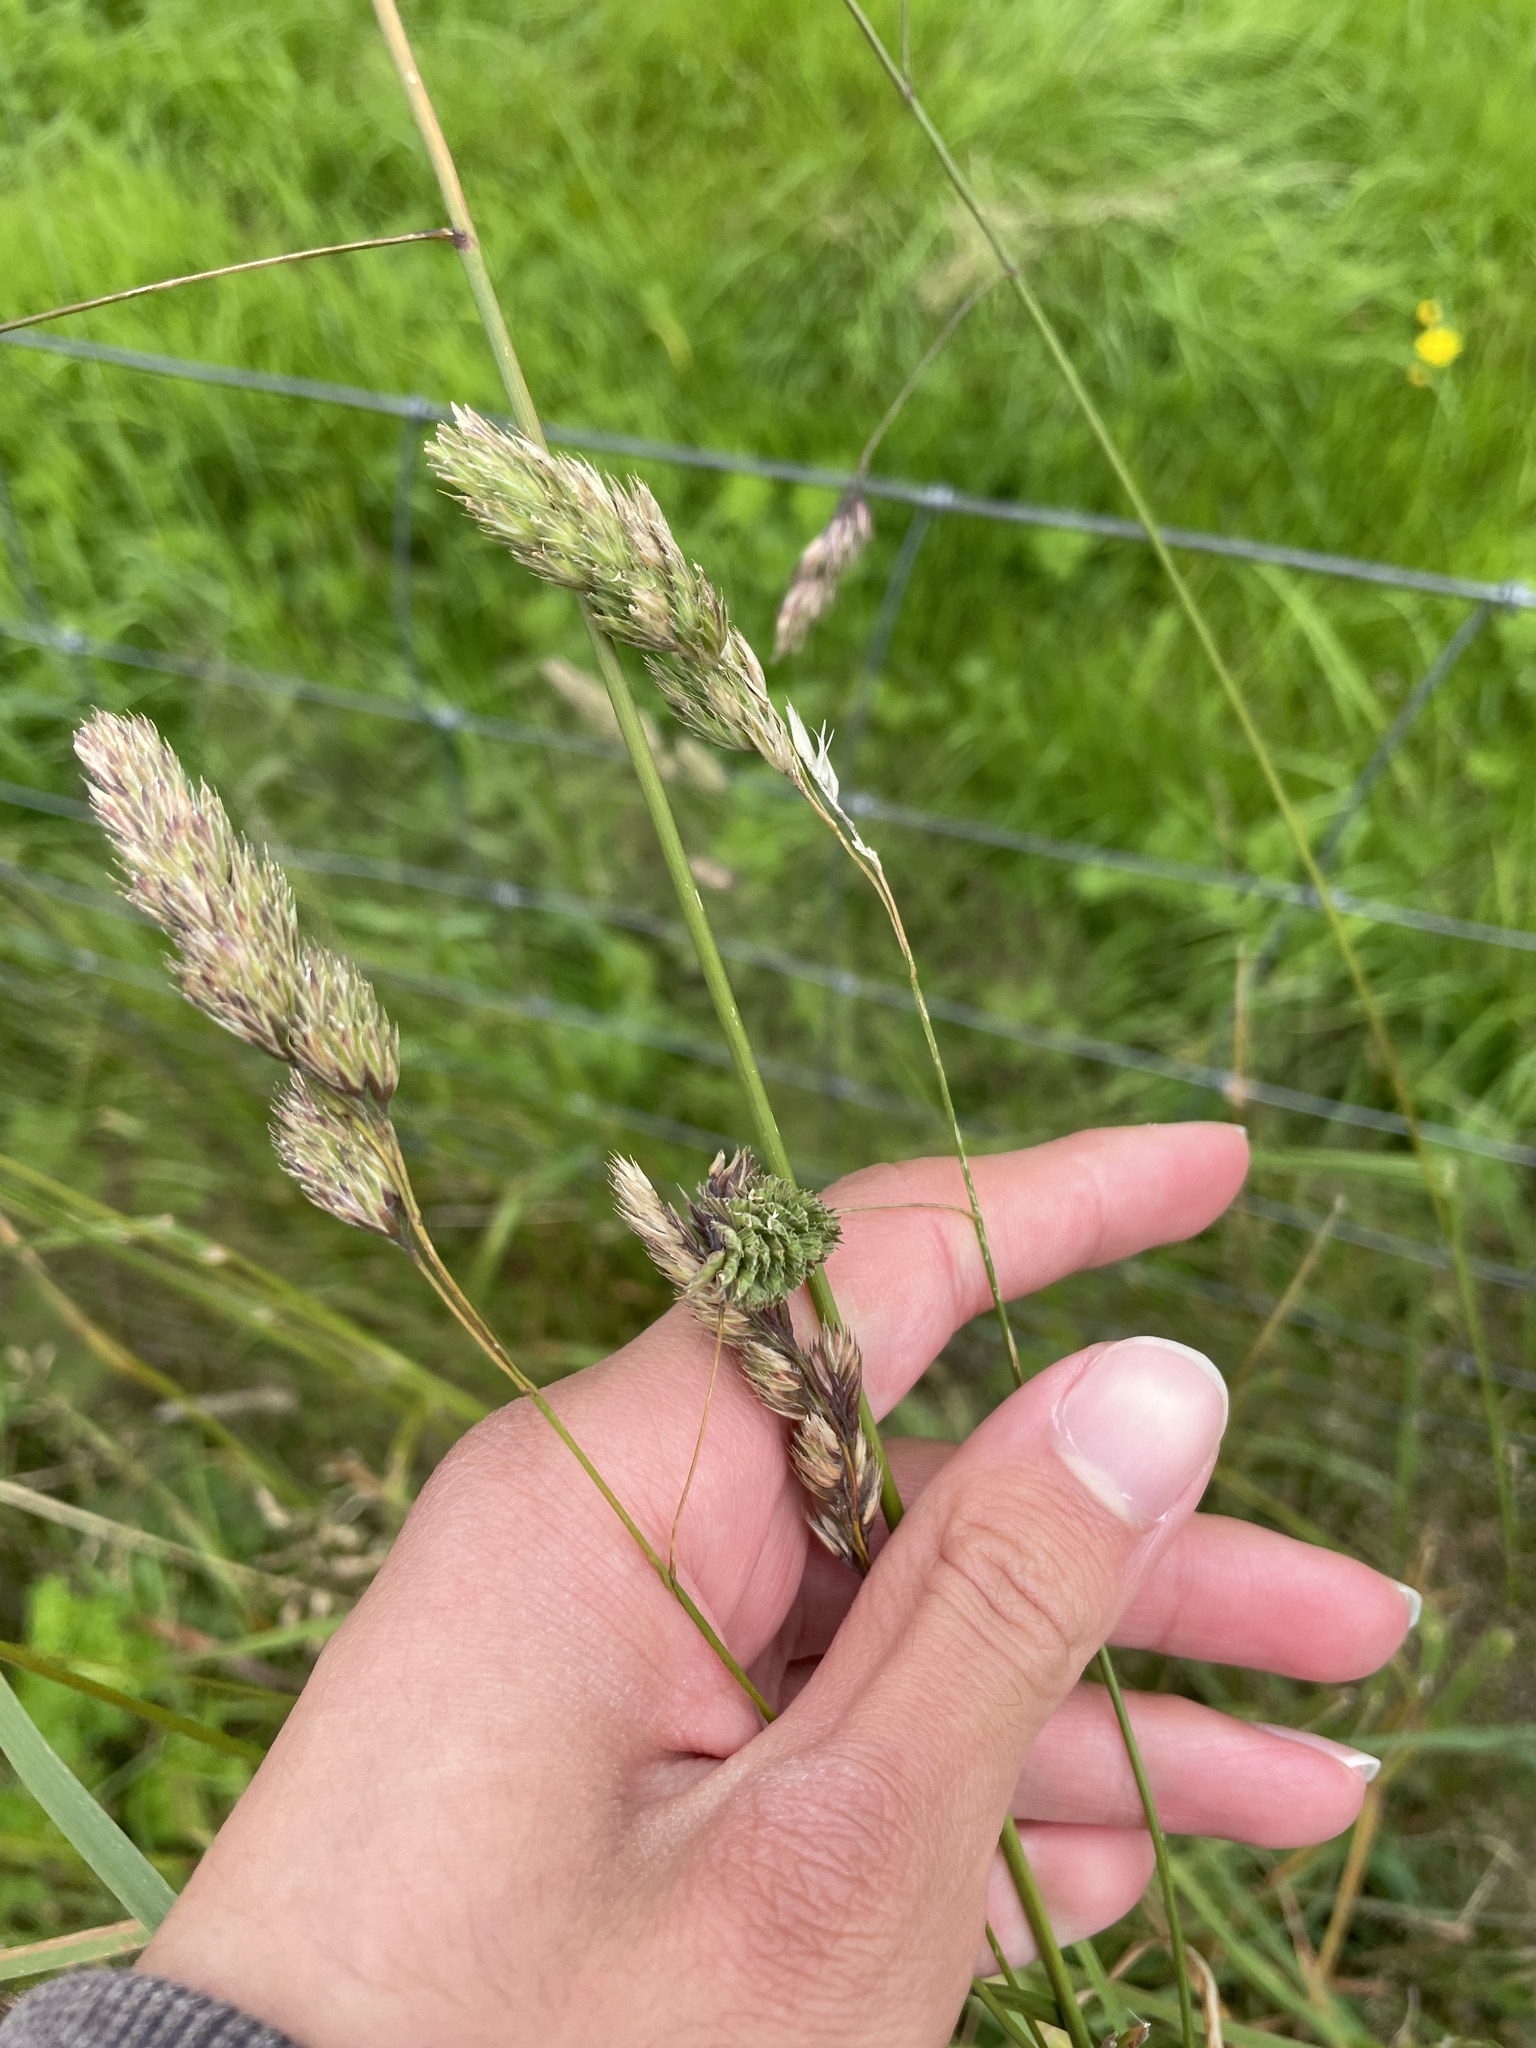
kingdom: Plantae
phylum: Tracheophyta
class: Liliopsida
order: Poales
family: Poaceae
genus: Dactylis
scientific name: Dactylis glomerata
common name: Orchardgrass
